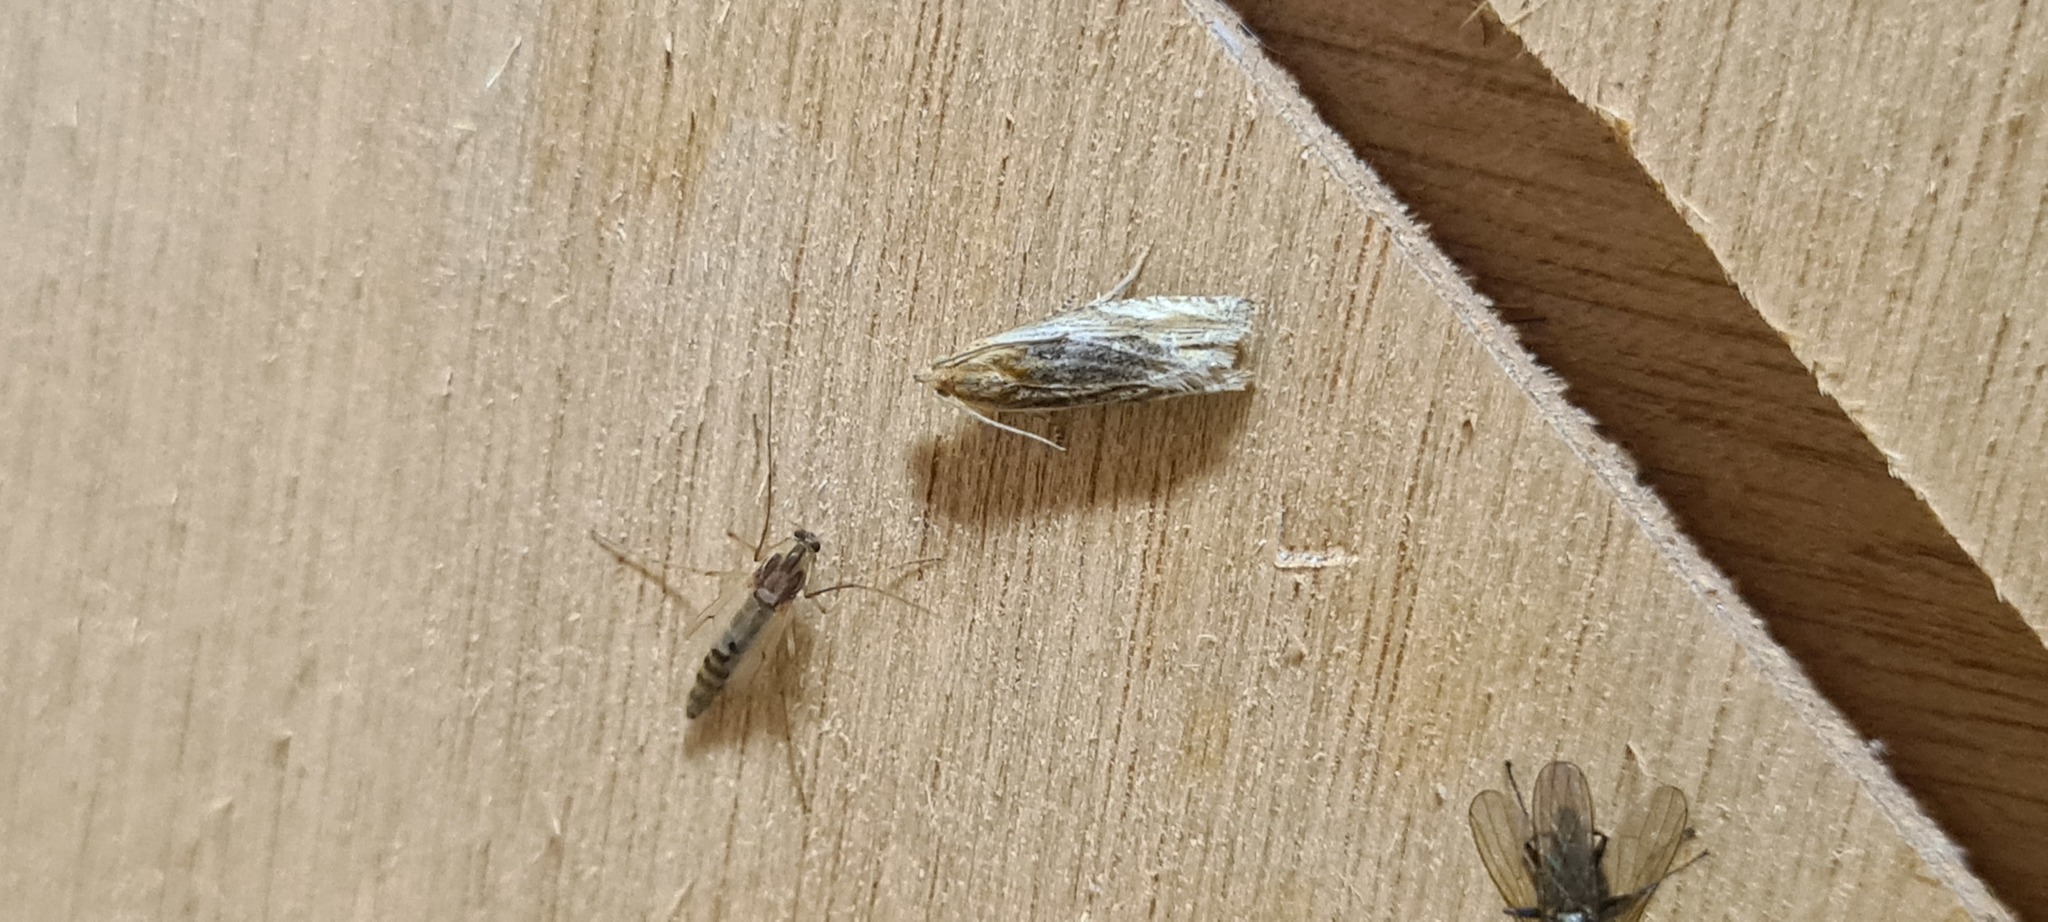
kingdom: Animalia
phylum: Arthropoda
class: Insecta
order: Lepidoptera
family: Tortricidae
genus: Eucosma
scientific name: Eucosma cana
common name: Hoary belle
